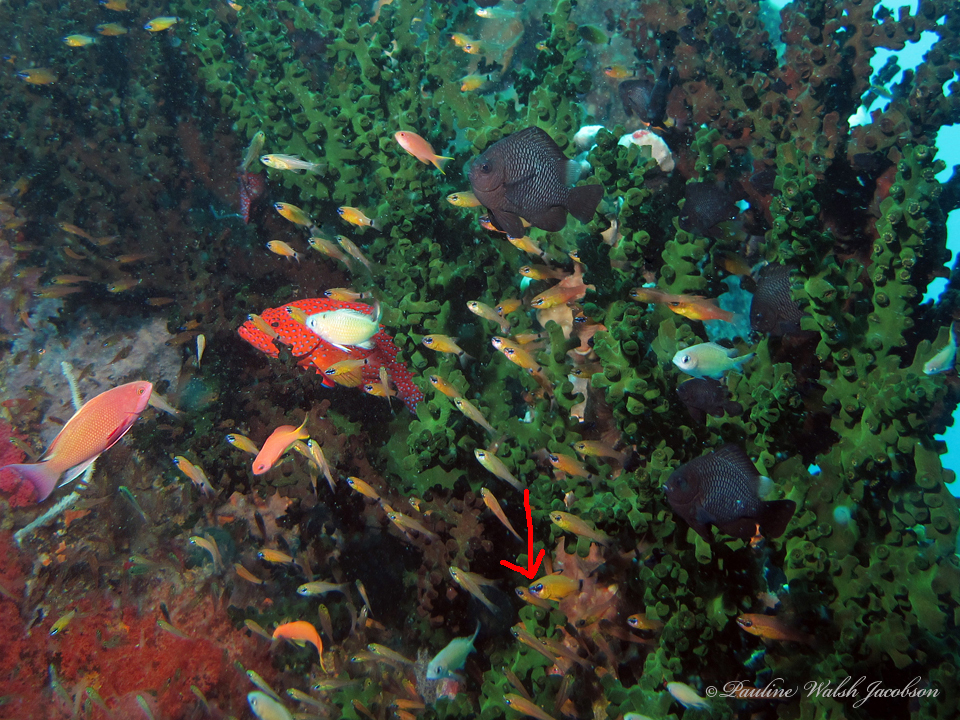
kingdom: Animalia
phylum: Chordata
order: Perciformes
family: Apogonidae
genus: Ostorhinchus
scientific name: Ostorhinchus aureus
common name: Ring-tailed cardinalfish
